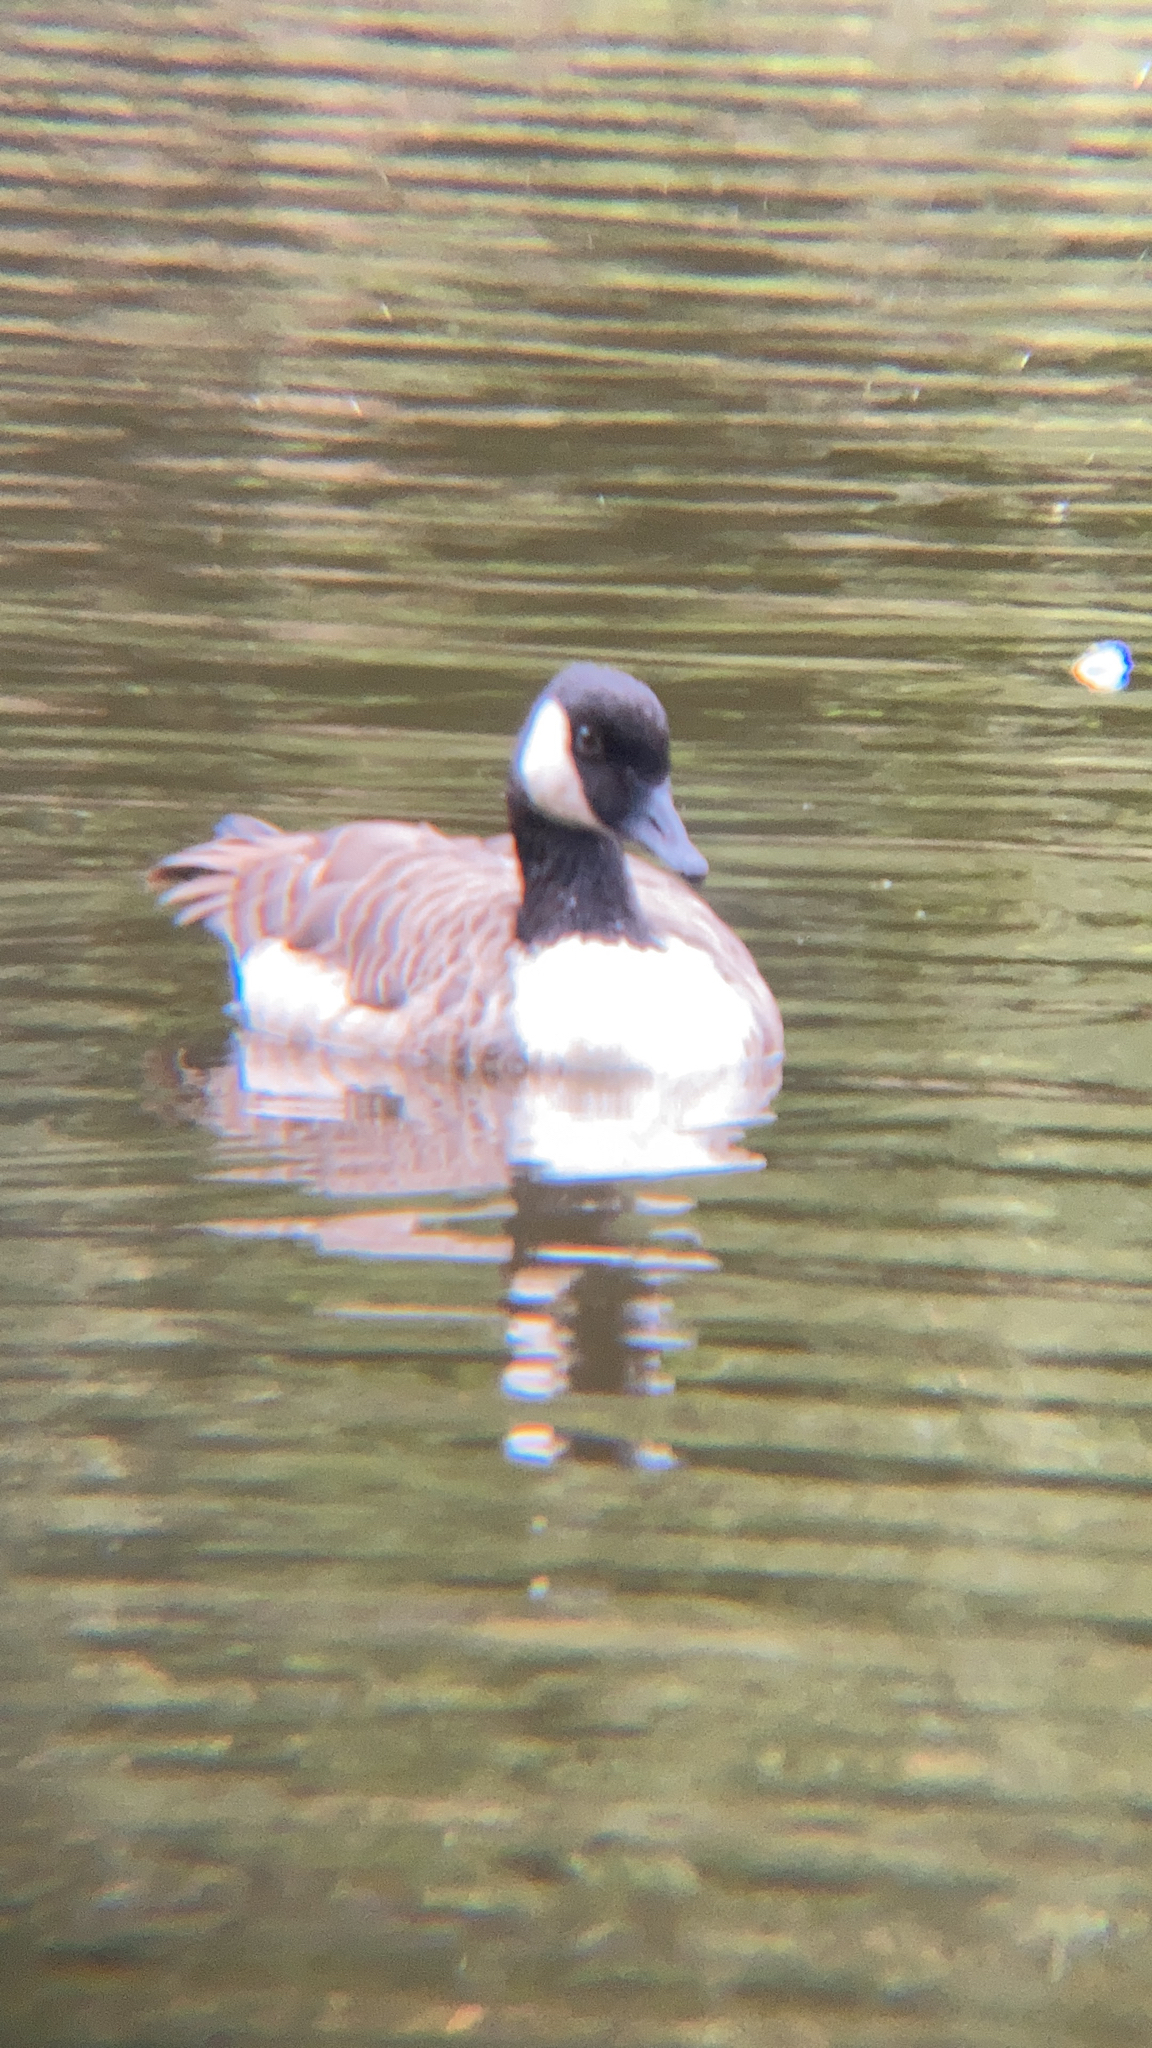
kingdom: Animalia
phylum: Chordata
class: Aves
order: Anseriformes
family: Anatidae
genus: Branta
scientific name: Branta canadensis
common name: Canada goose
